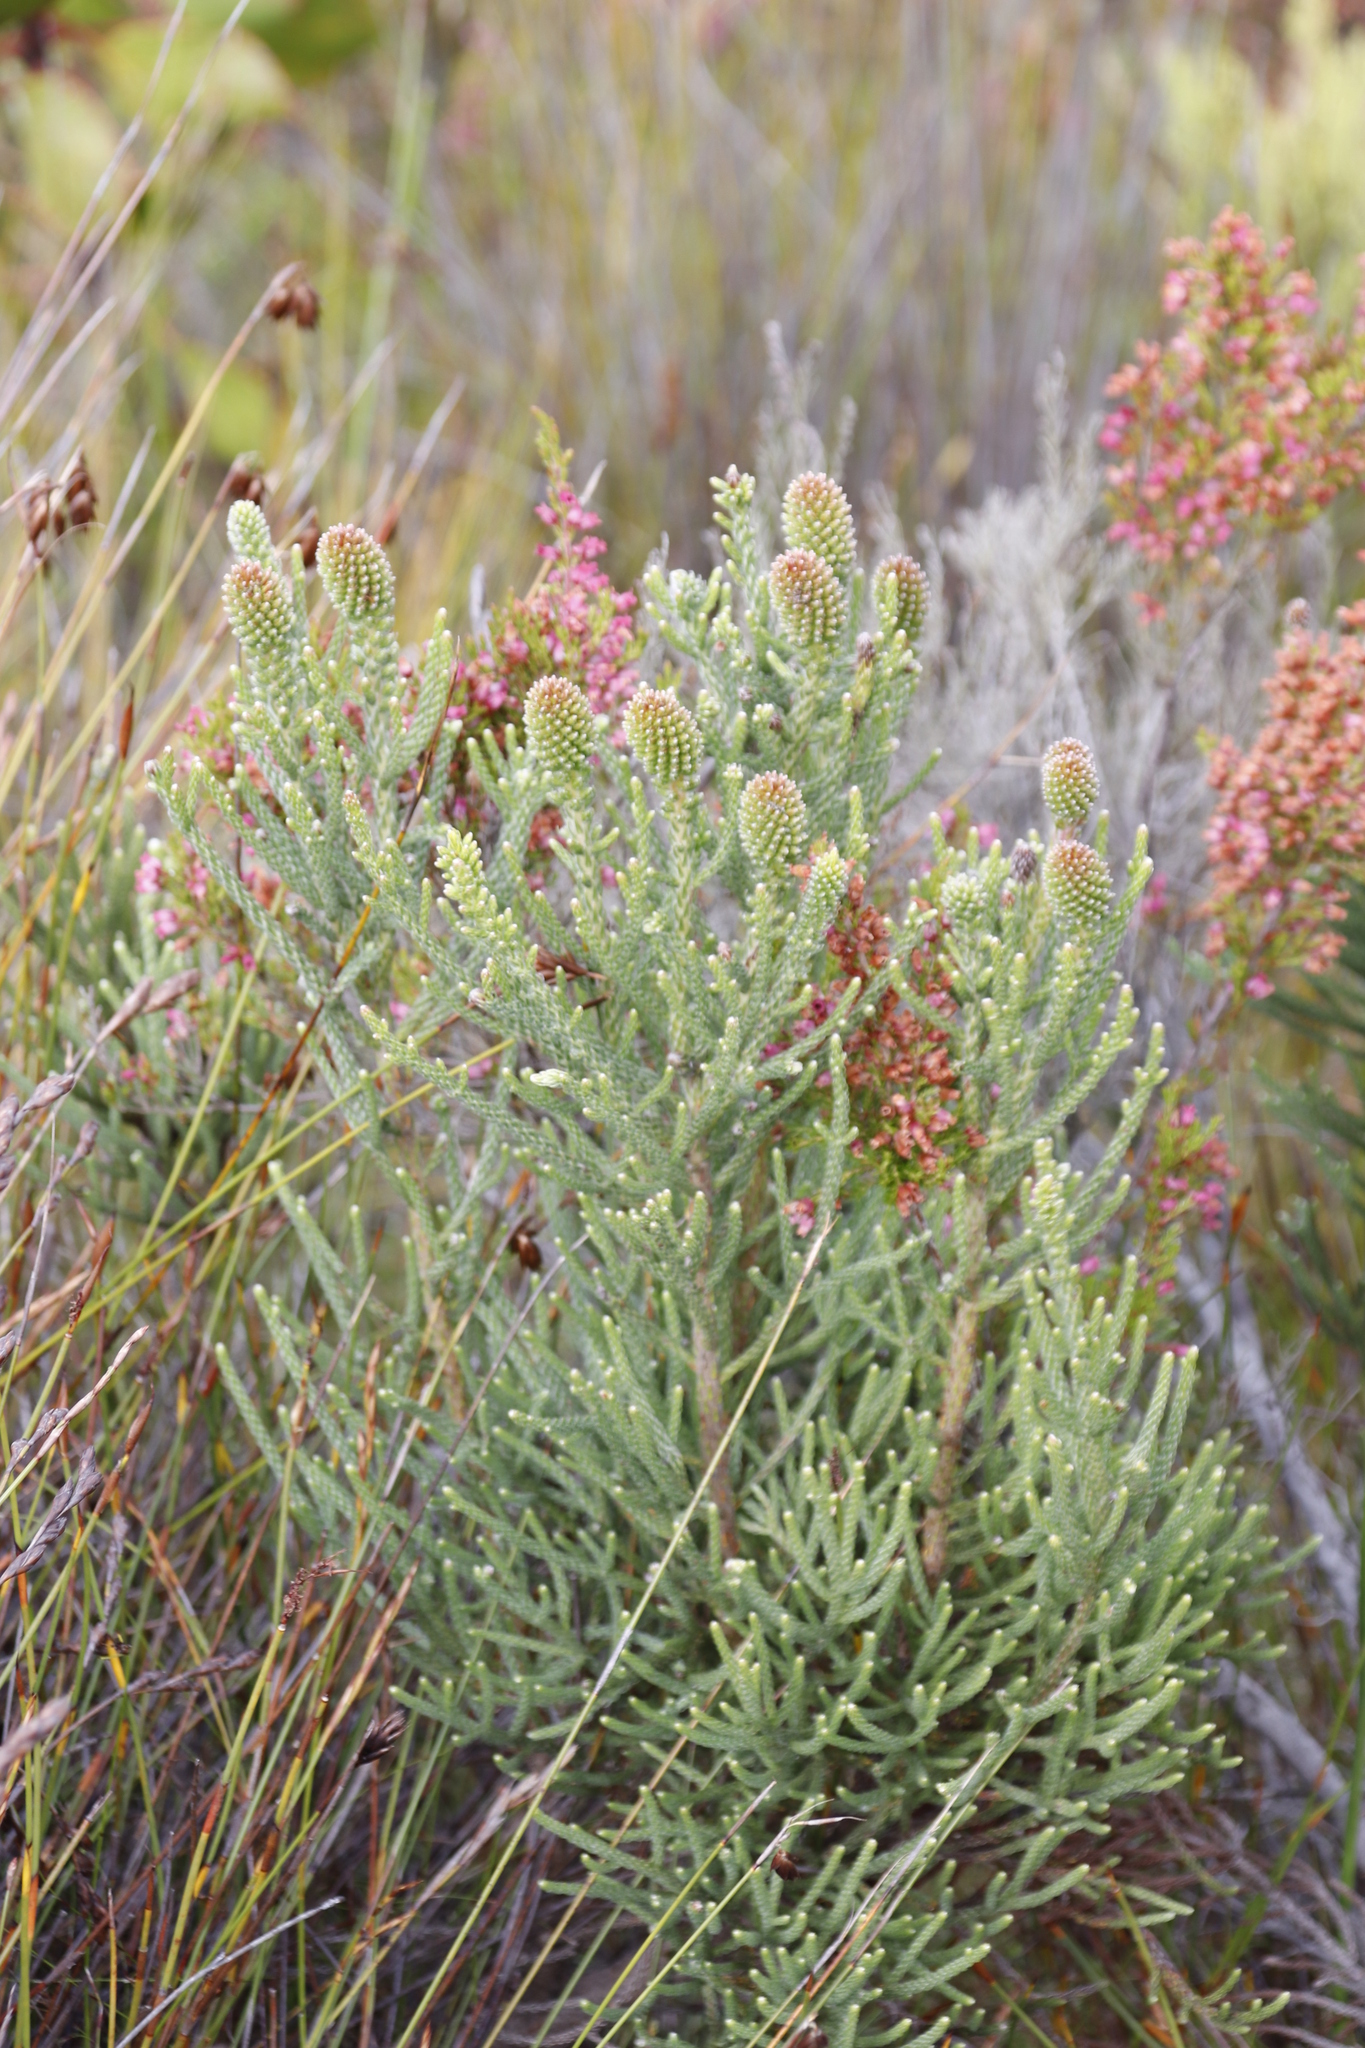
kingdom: Plantae
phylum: Tracheophyta
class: Magnoliopsida
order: Bruniales
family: Bruniaceae
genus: Brunia
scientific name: Brunia fragarioides
